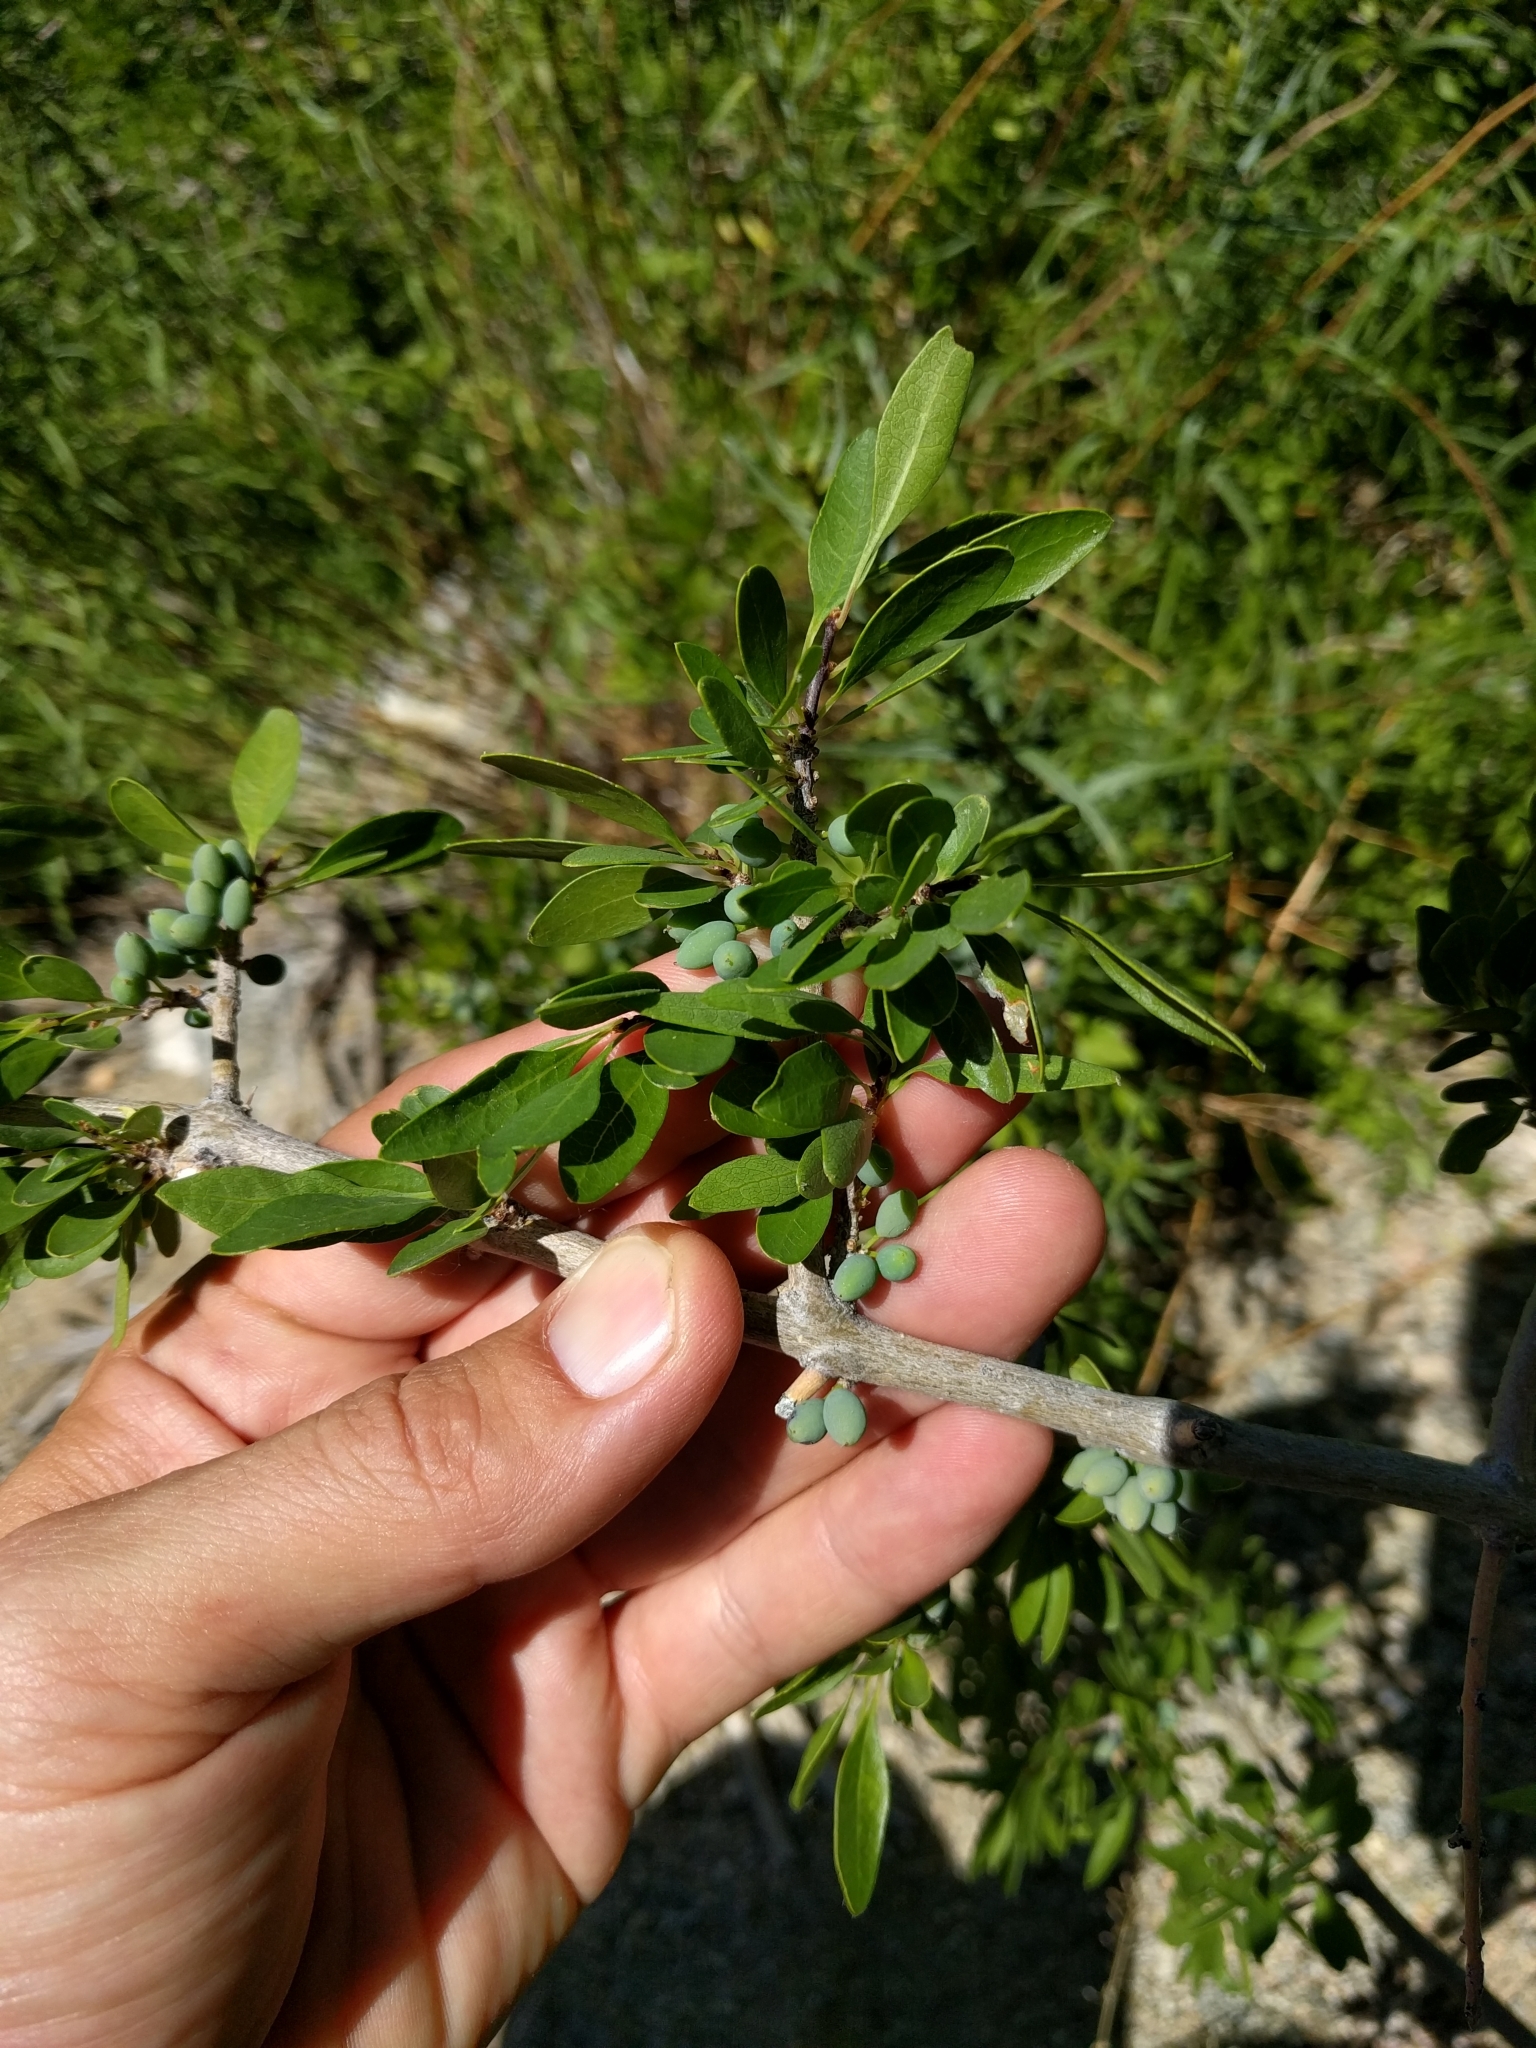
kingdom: Plantae
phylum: Tracheophyta
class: Magnoliopsida
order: Lamiales
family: Oleaceae
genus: Forestiera
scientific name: Forestiera pubescens
